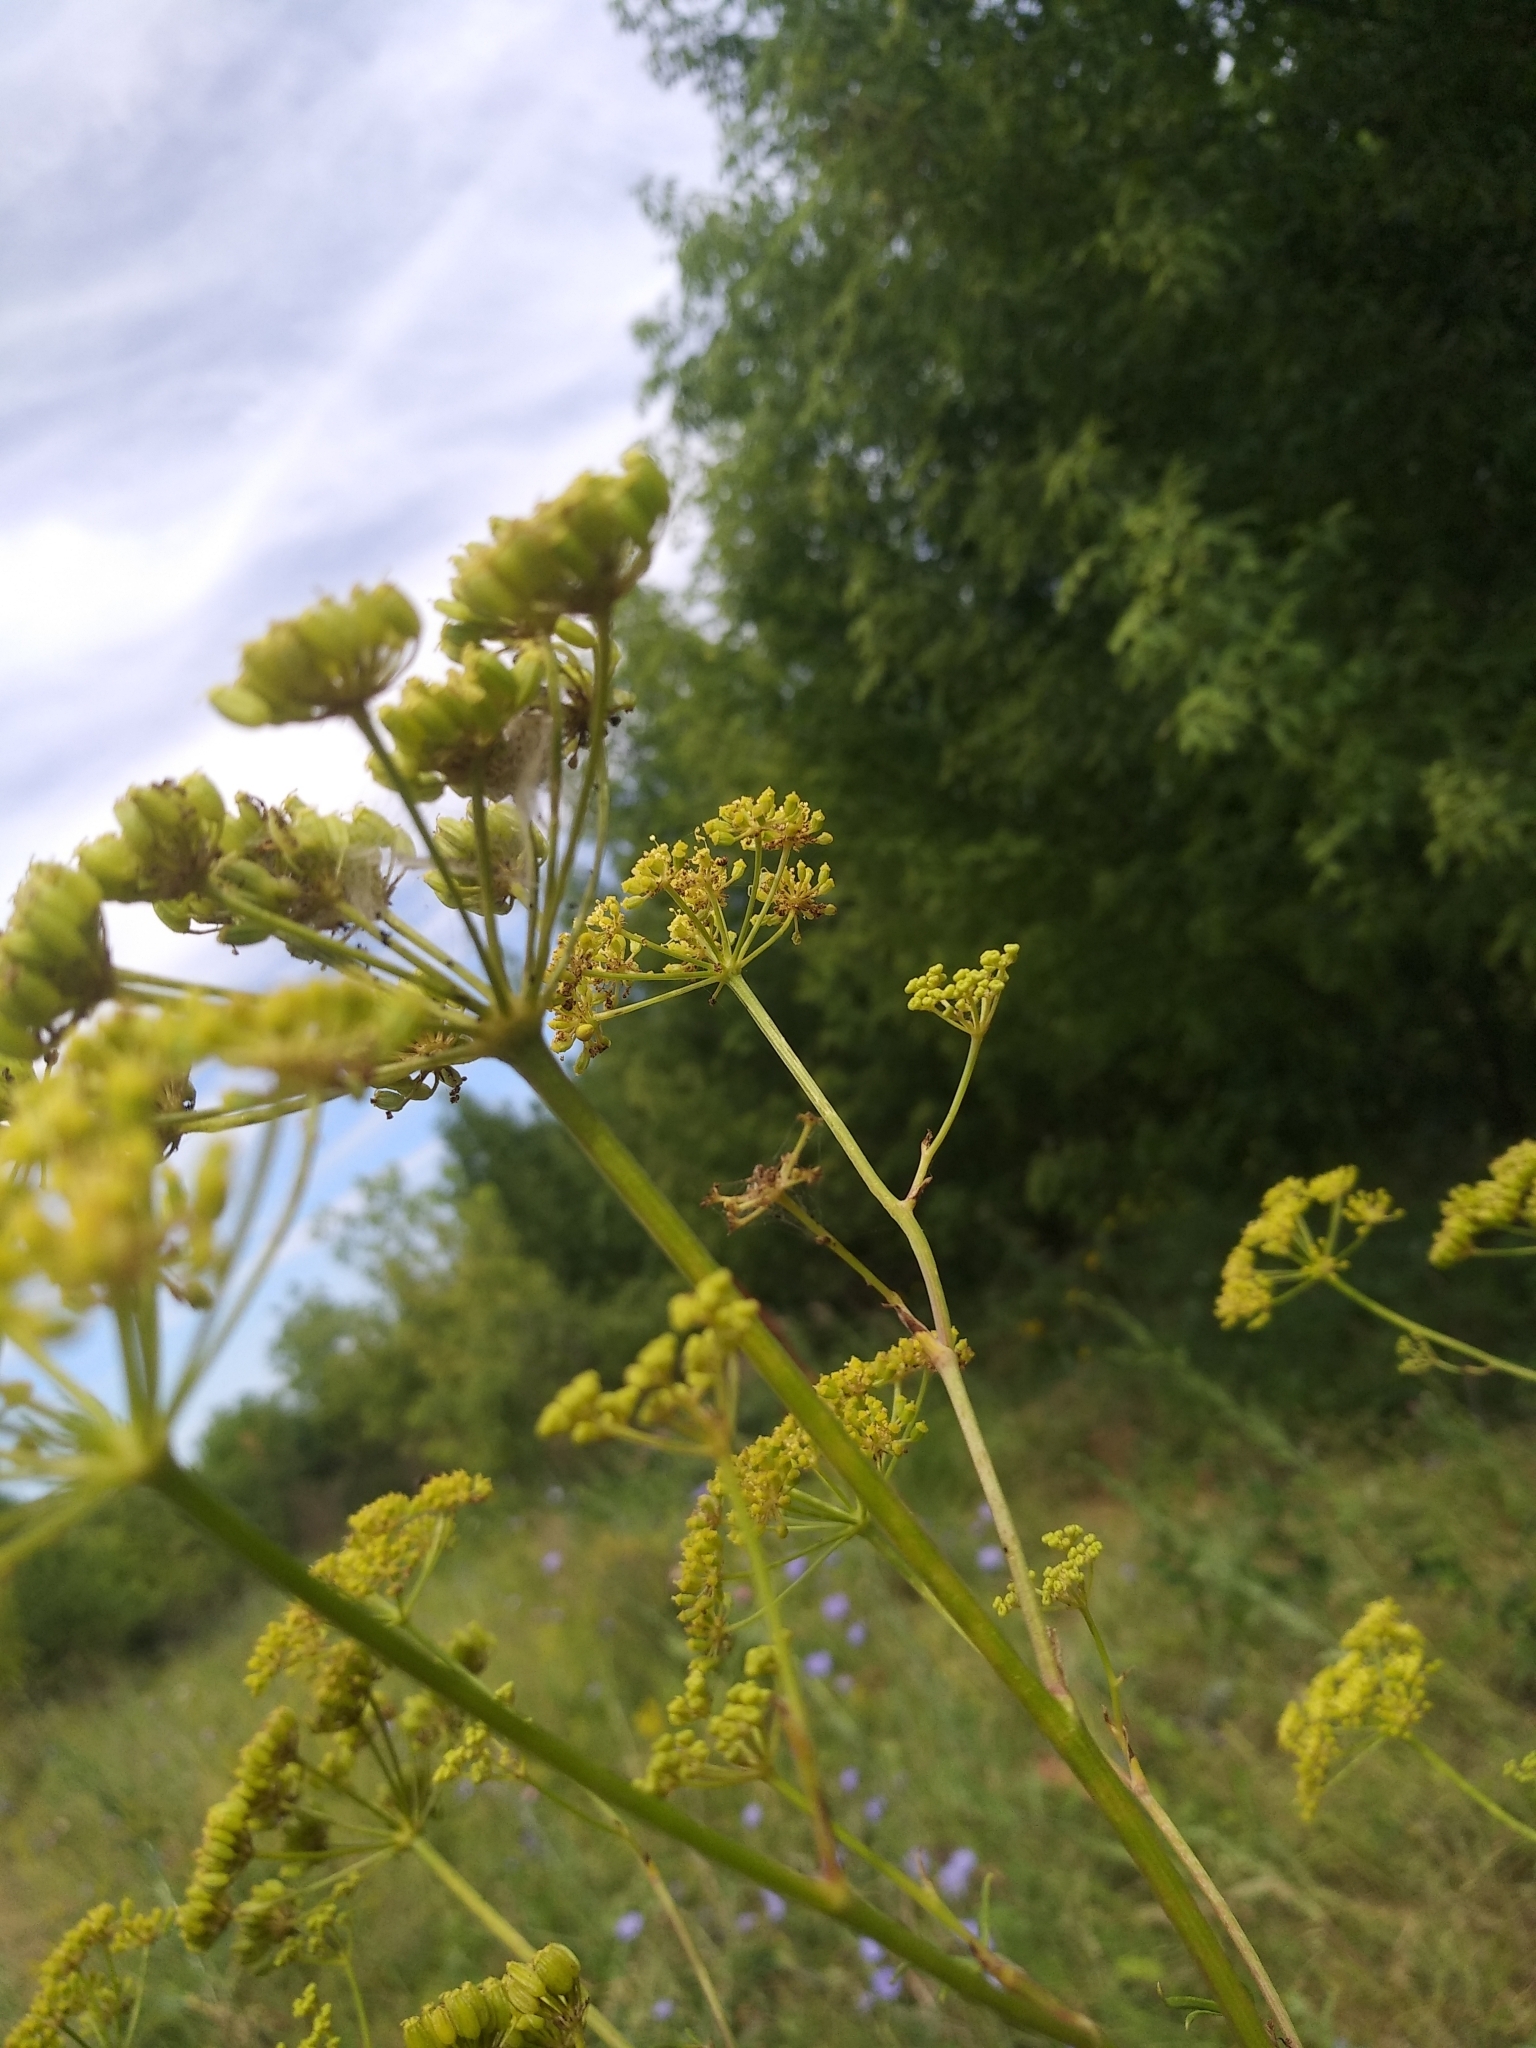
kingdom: Plantae
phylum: Tracheophyta
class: Magnoliopsida
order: Apiales
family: Apiaceae
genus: Silaum
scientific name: Silaum silaus
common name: Pepper-saxifrage
